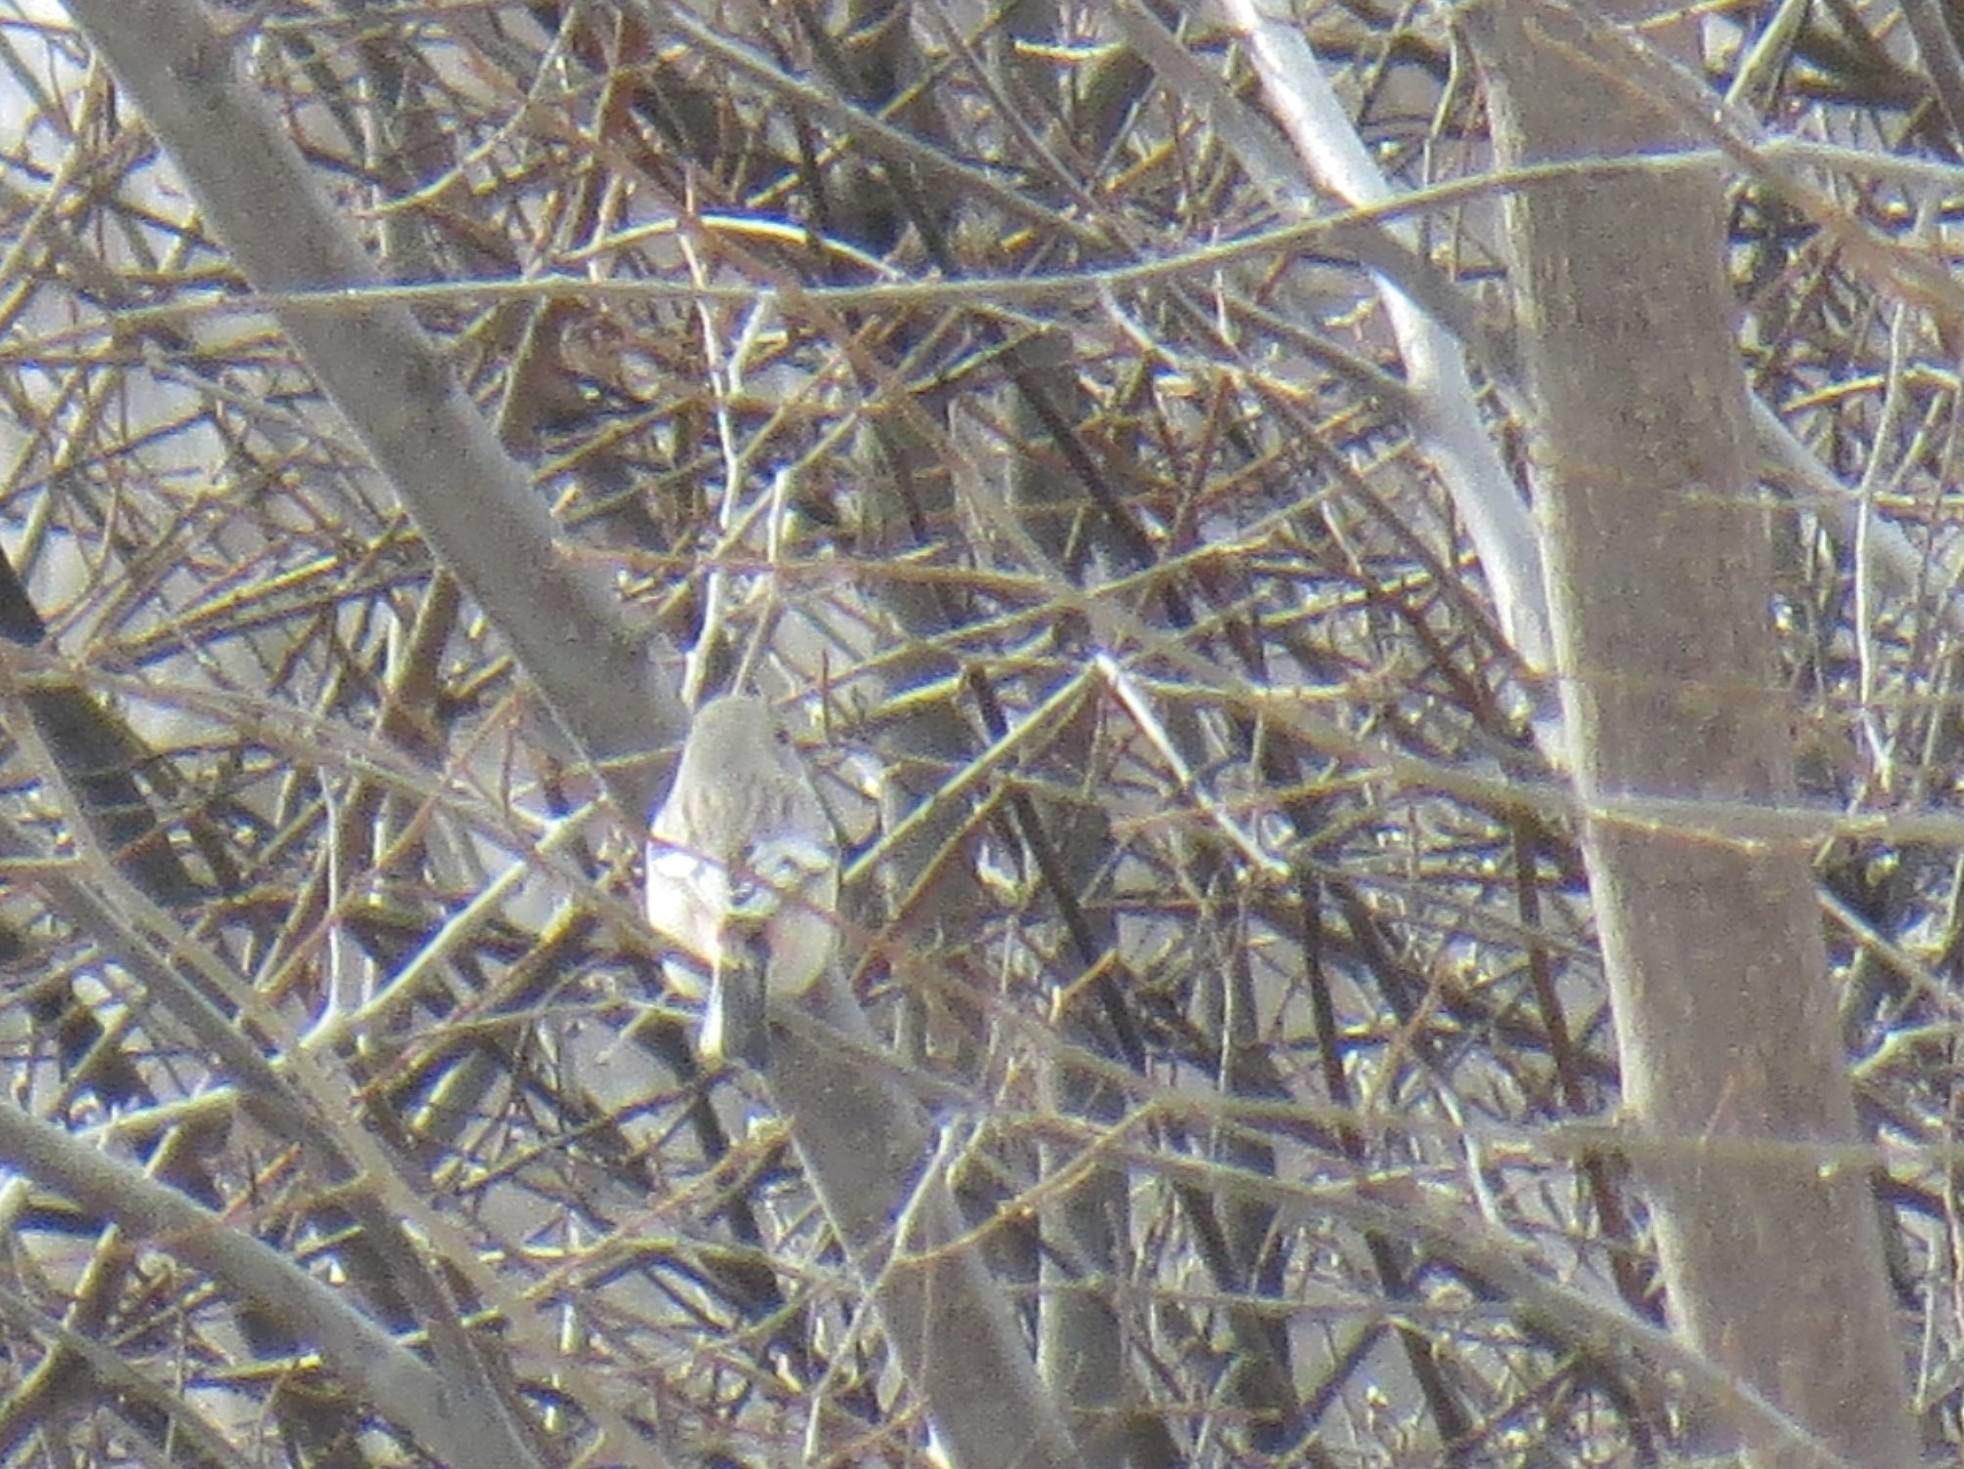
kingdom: Animalia
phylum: Chordata
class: Aves
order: Passeriformes
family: Fringillidae
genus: Carpodacus
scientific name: Carpodacus sibiricus
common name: Long-tailed rosefinch
